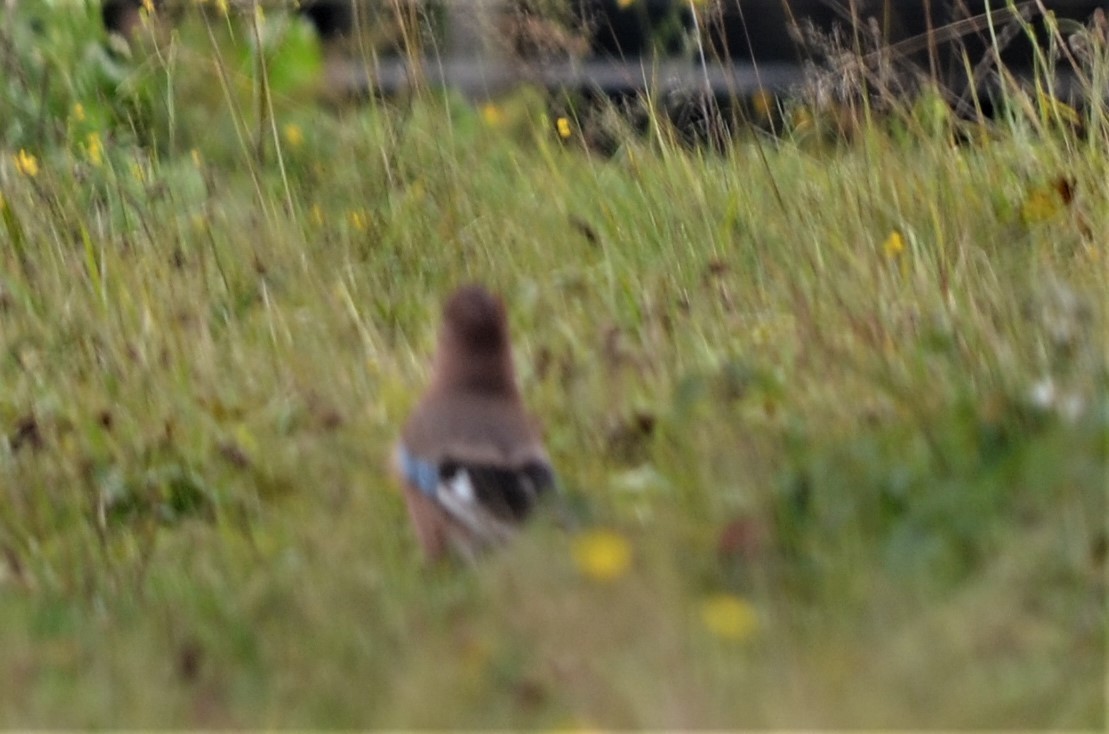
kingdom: Animalia
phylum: Chordata
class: Aves
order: Passeriformes
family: Corvidae
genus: Garrulus
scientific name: Garrulus glandarius
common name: Eurasian jay
